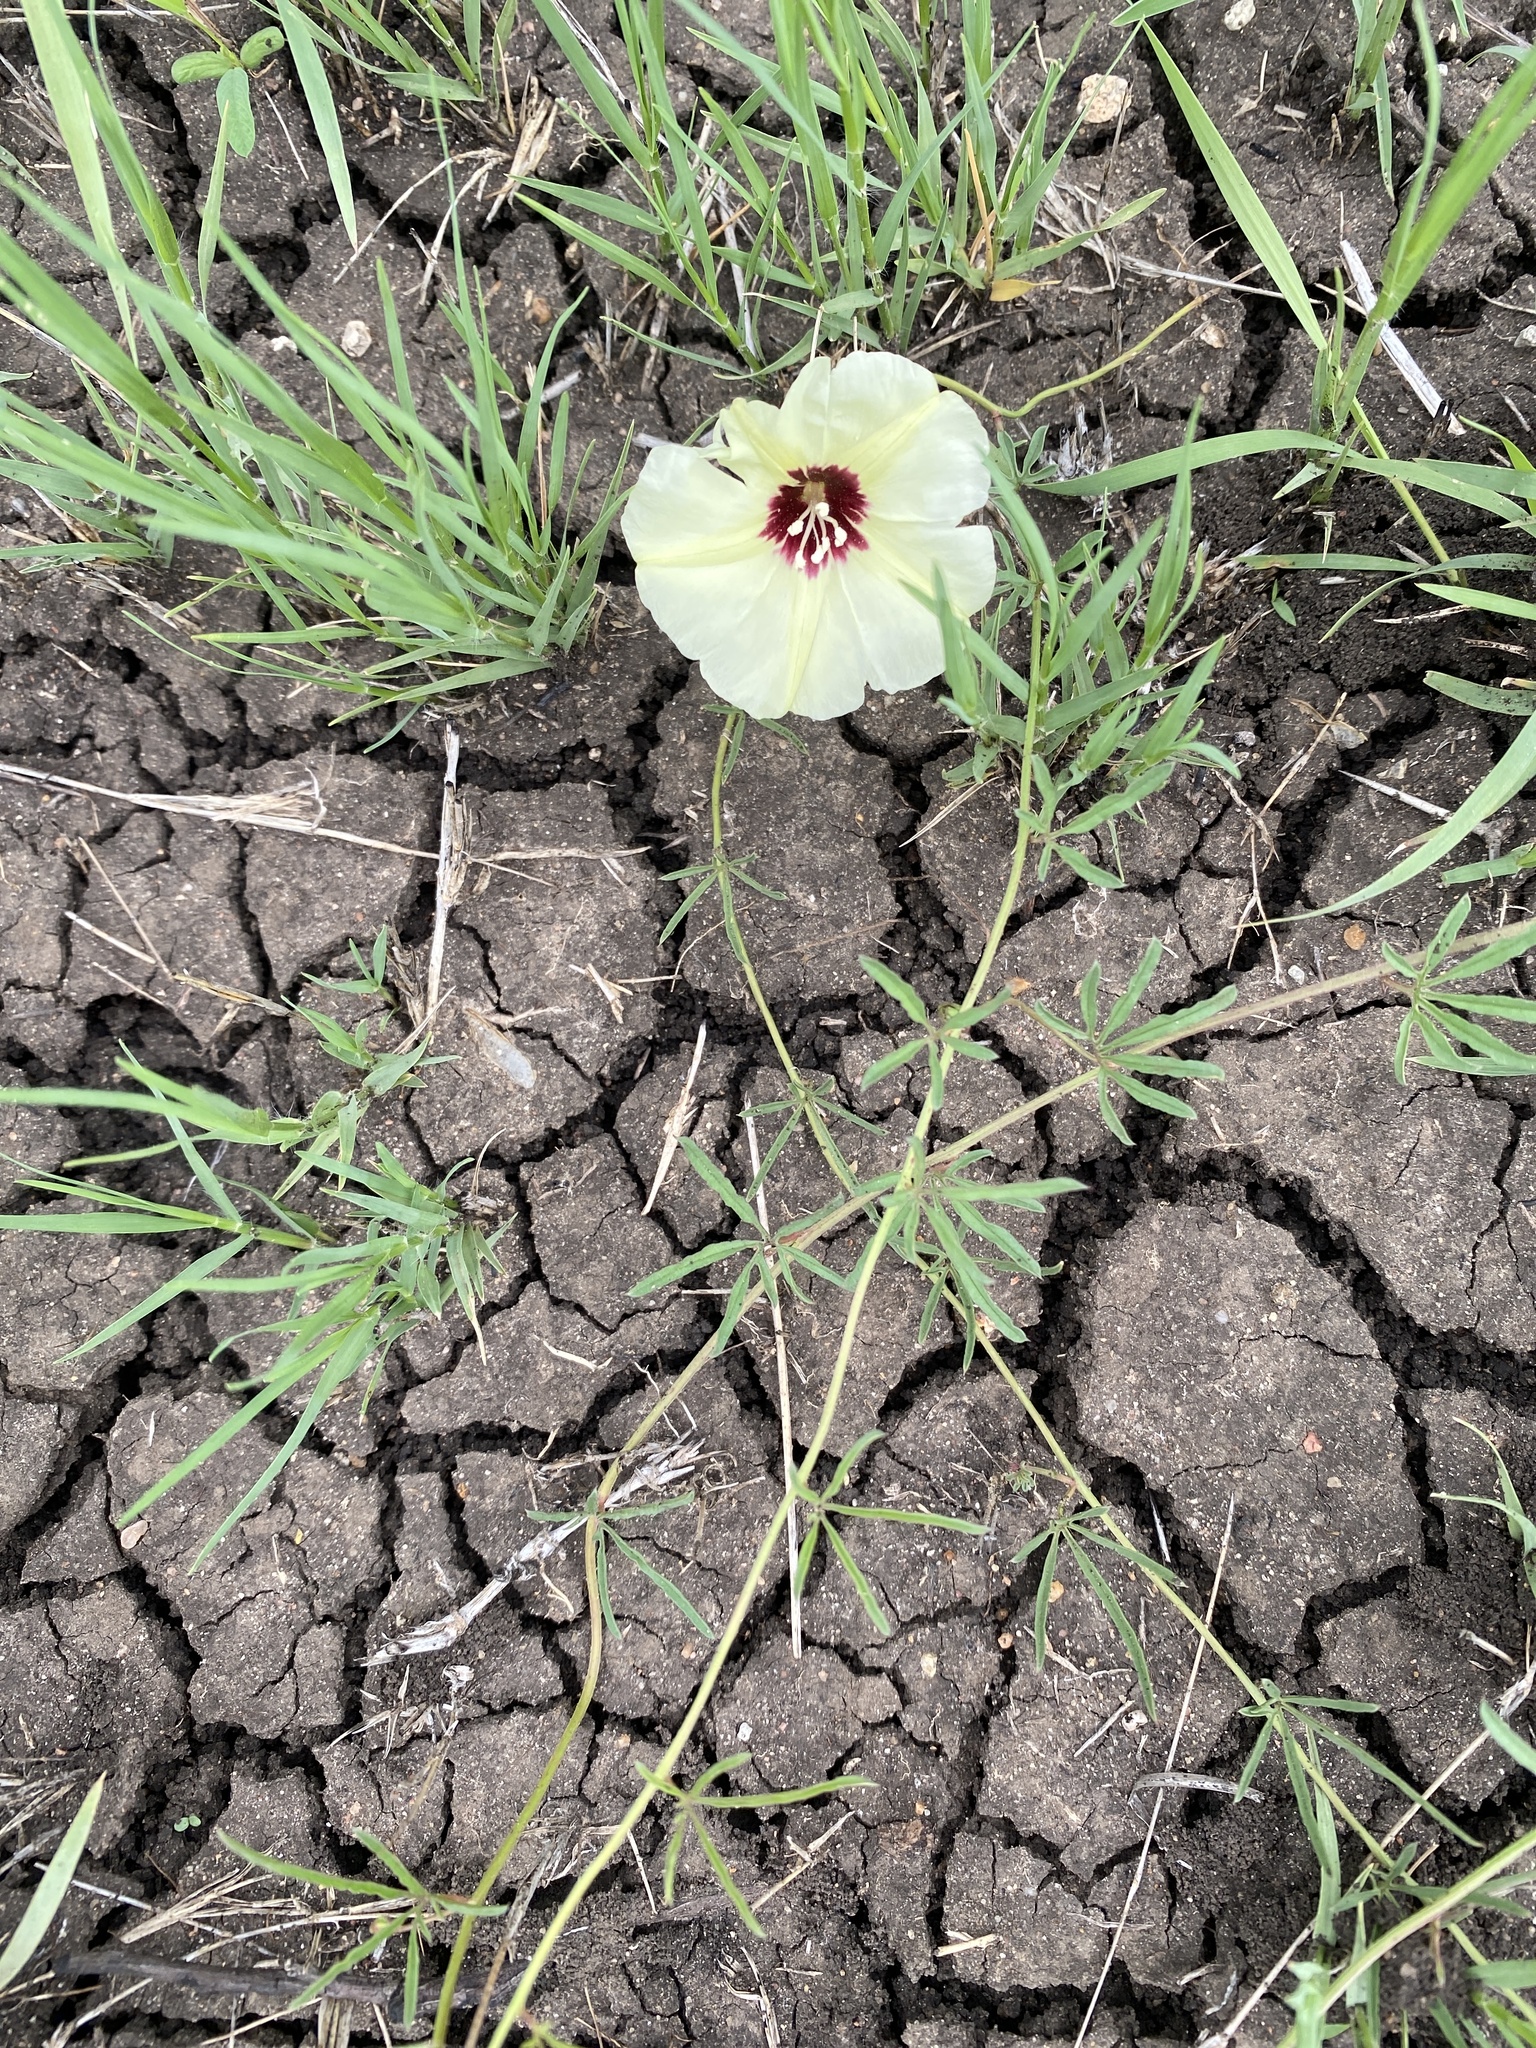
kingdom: Plantae
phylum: Tracheophyta
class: Magnoliopsida
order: Solanales
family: Convolvulaceae
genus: Merremia
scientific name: Merremia palmata
